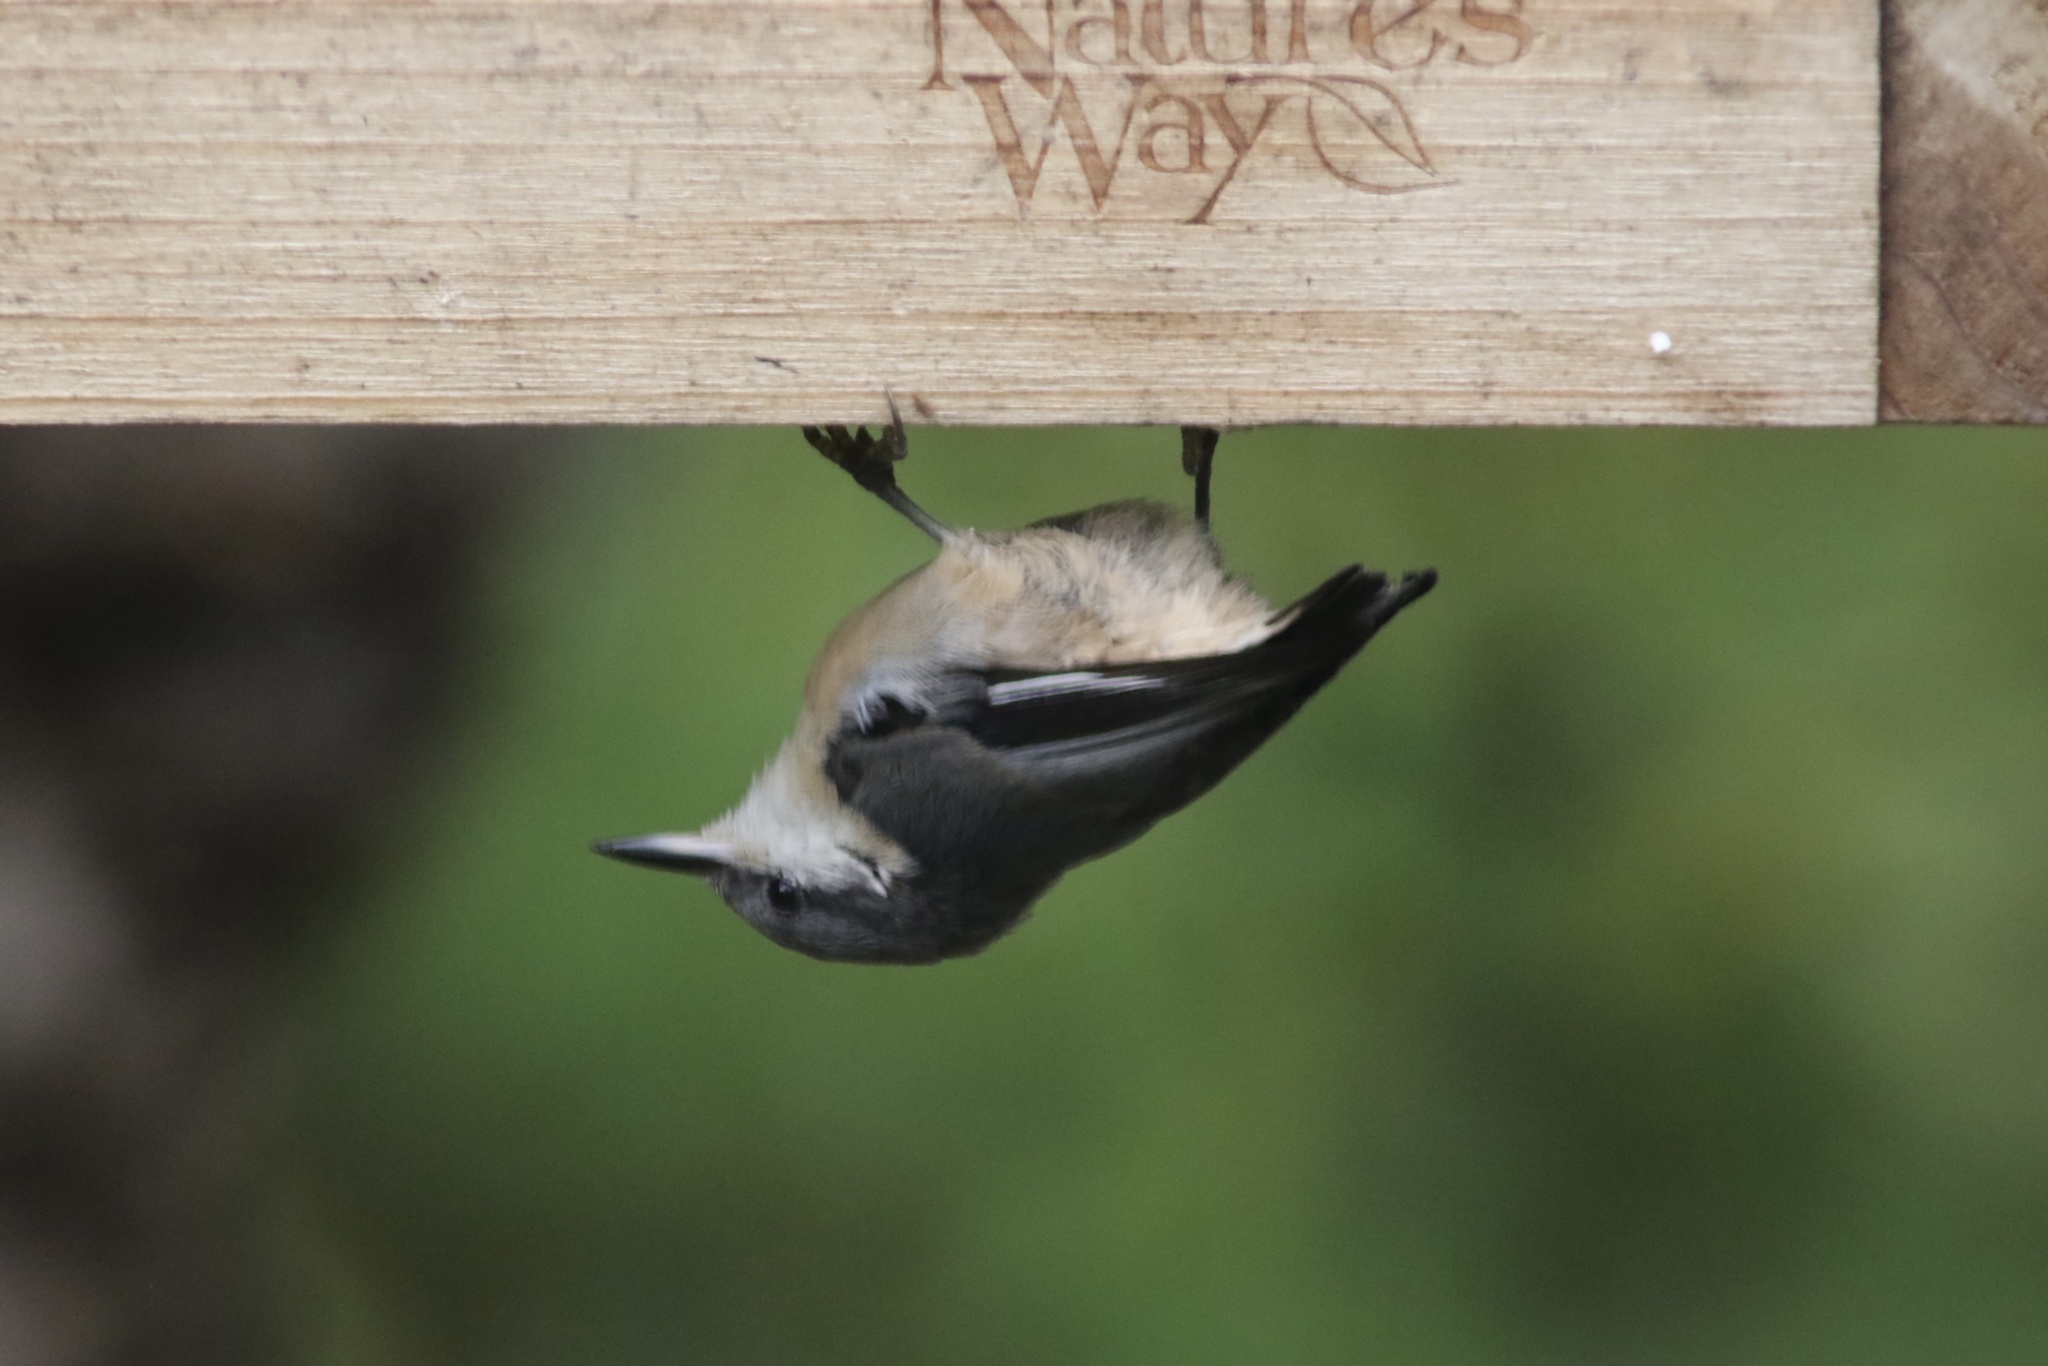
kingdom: Animalia
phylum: Chordata
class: Aves
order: Passeriformes
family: Sittidae
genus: Sitta
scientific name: Sitta pygmaea
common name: Pygmy nuthatch
